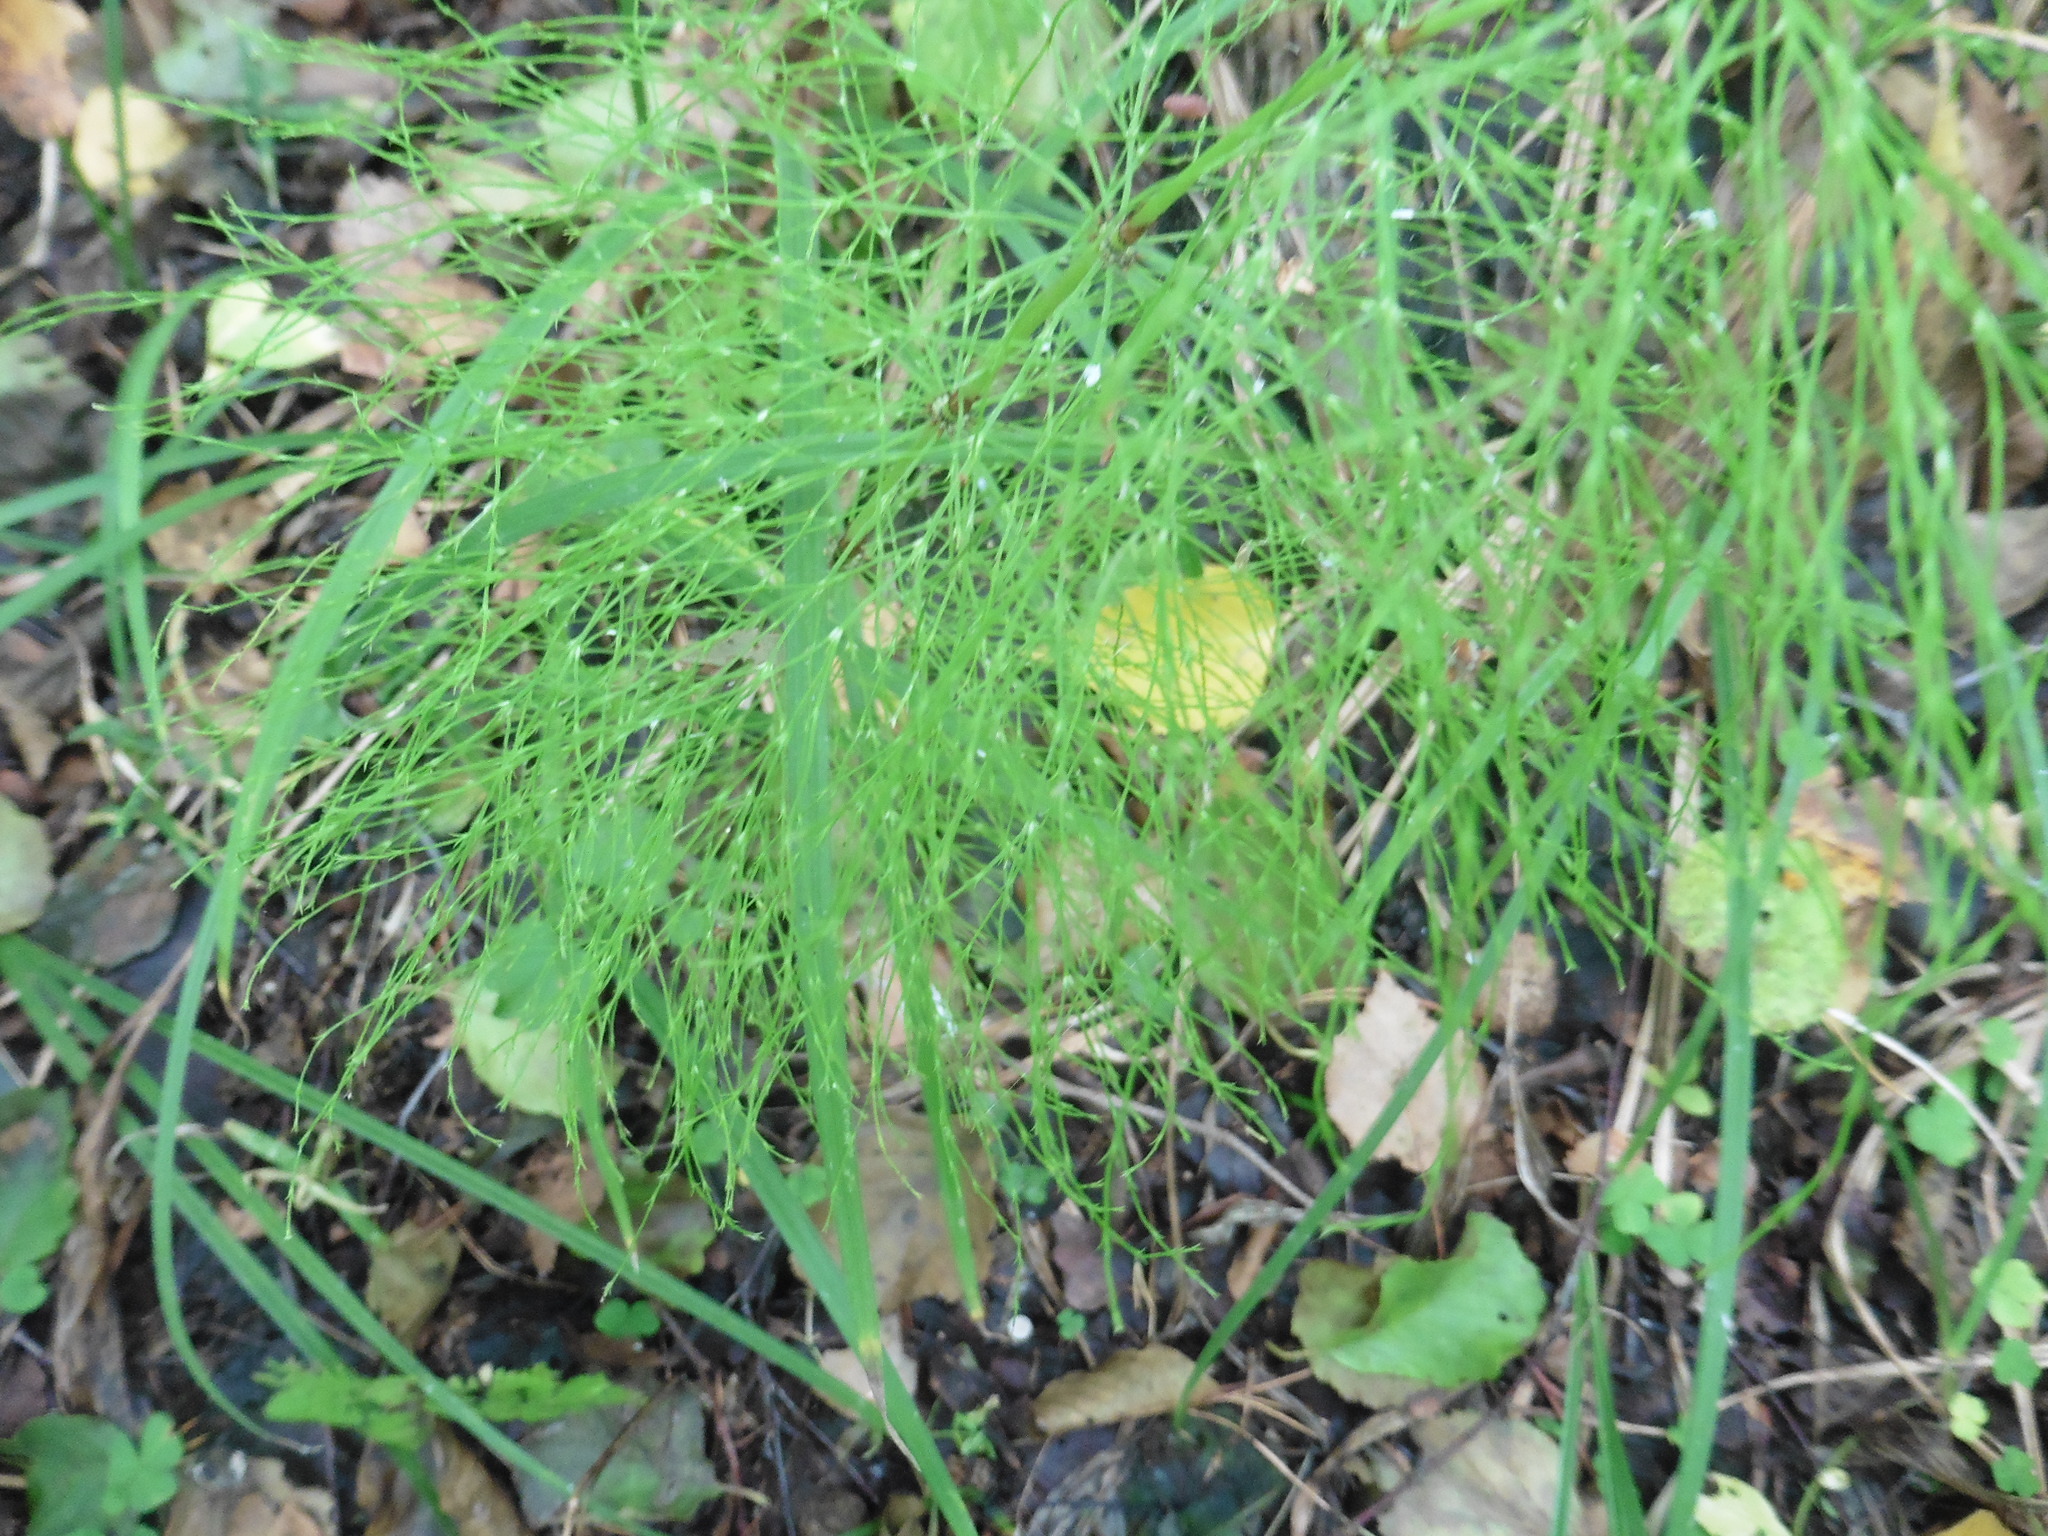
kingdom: Plantae
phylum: Tracheophyta
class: Polypodiopsida
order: Equisetales
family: Equisetaceae
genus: Equisetum
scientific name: Equisetum sylvaticum
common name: Wood horsetail
